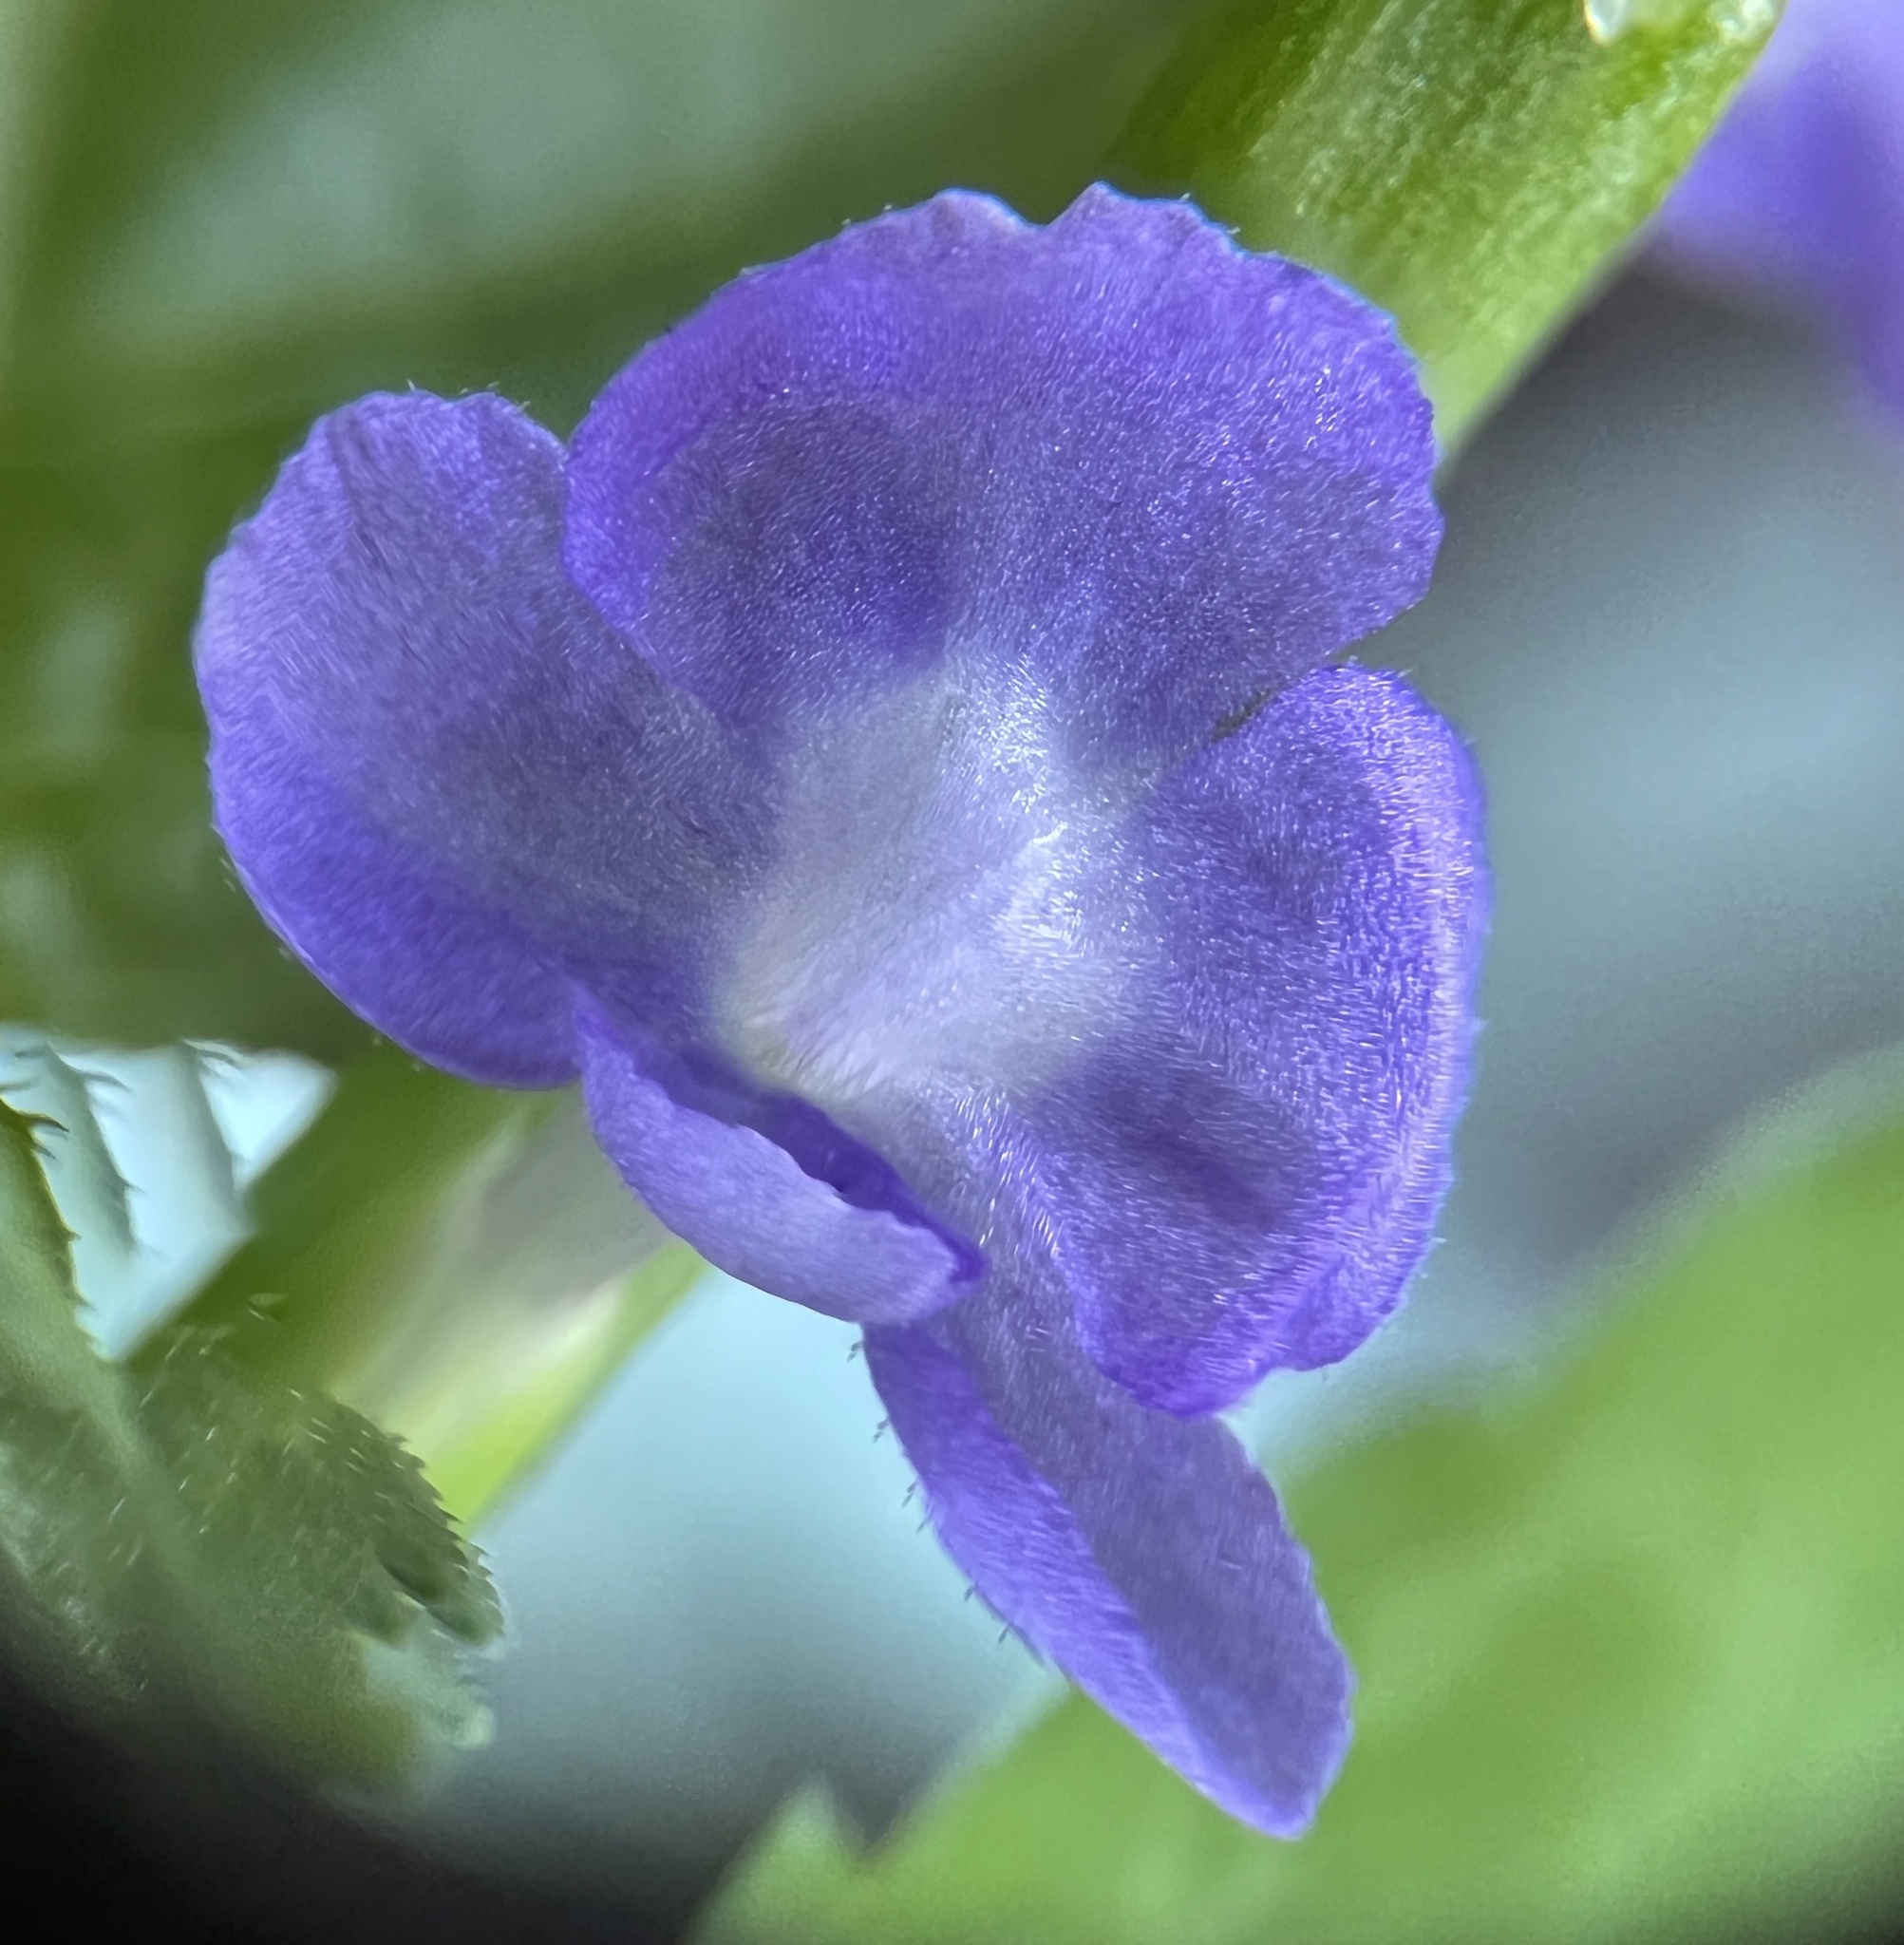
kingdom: Plantae
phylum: Tracheophyta
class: Magnoliopsida
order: Lamiales
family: Verbenaceae
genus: Stachytarpheta
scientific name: Stachytarpheta jamaicensis
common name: Light-blue snakeweed
